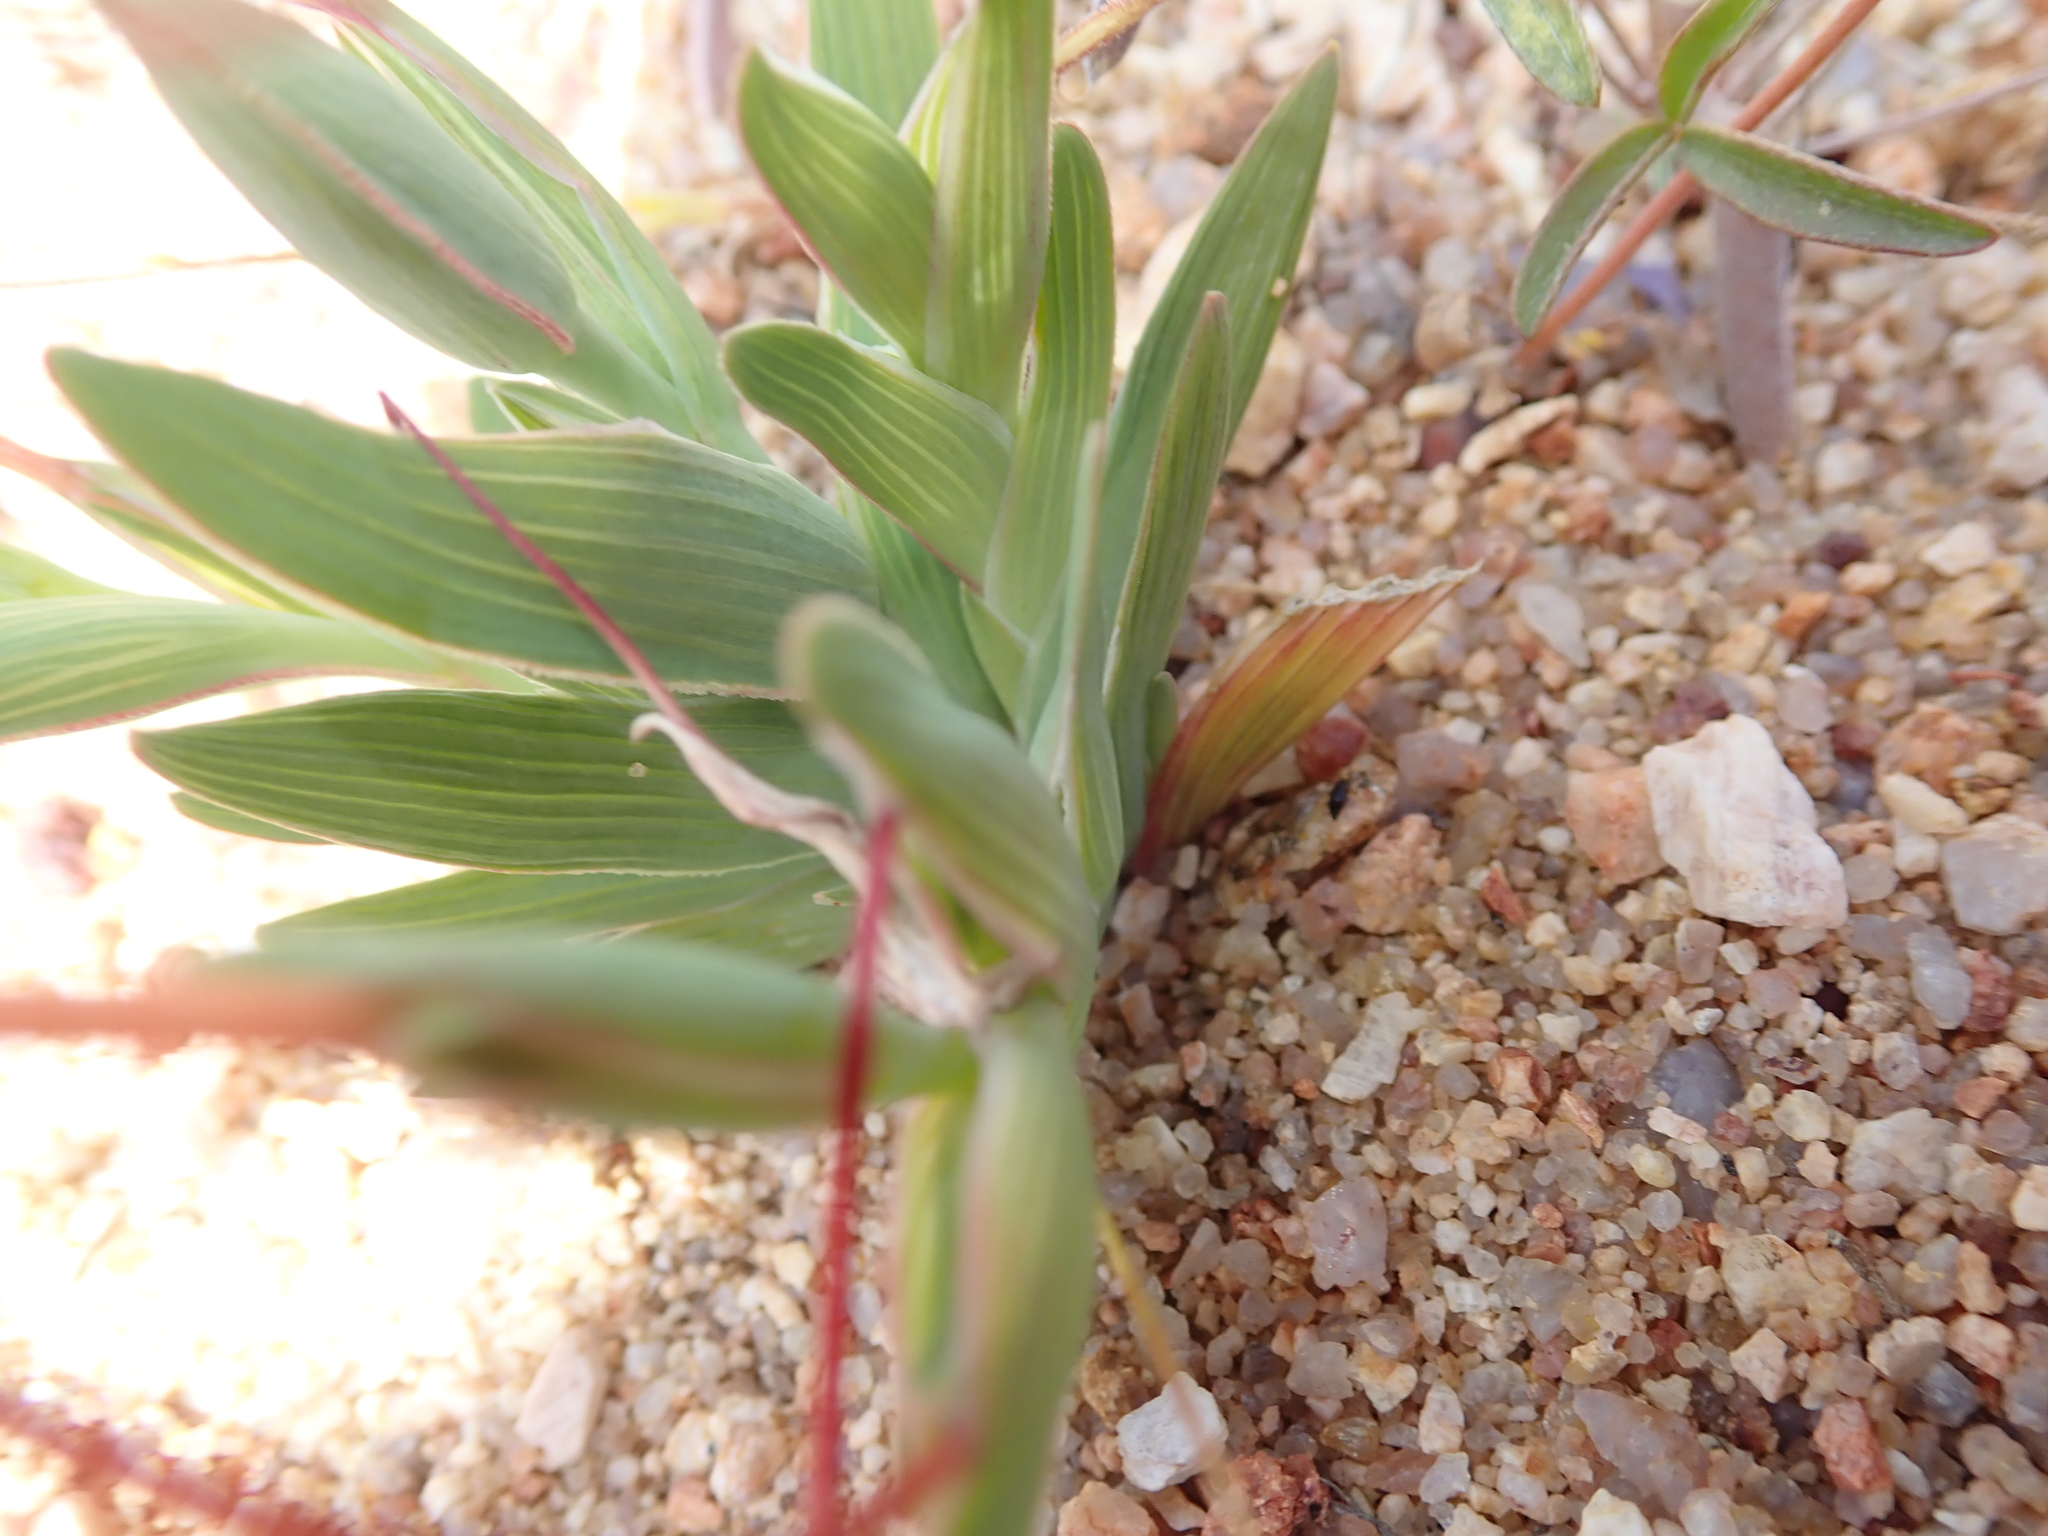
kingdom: Plantae
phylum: Tracheophyta
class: Liliopsida
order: Asparagales
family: Iridaceae
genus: Lapeirousia
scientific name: Lapeirousia arenicola
